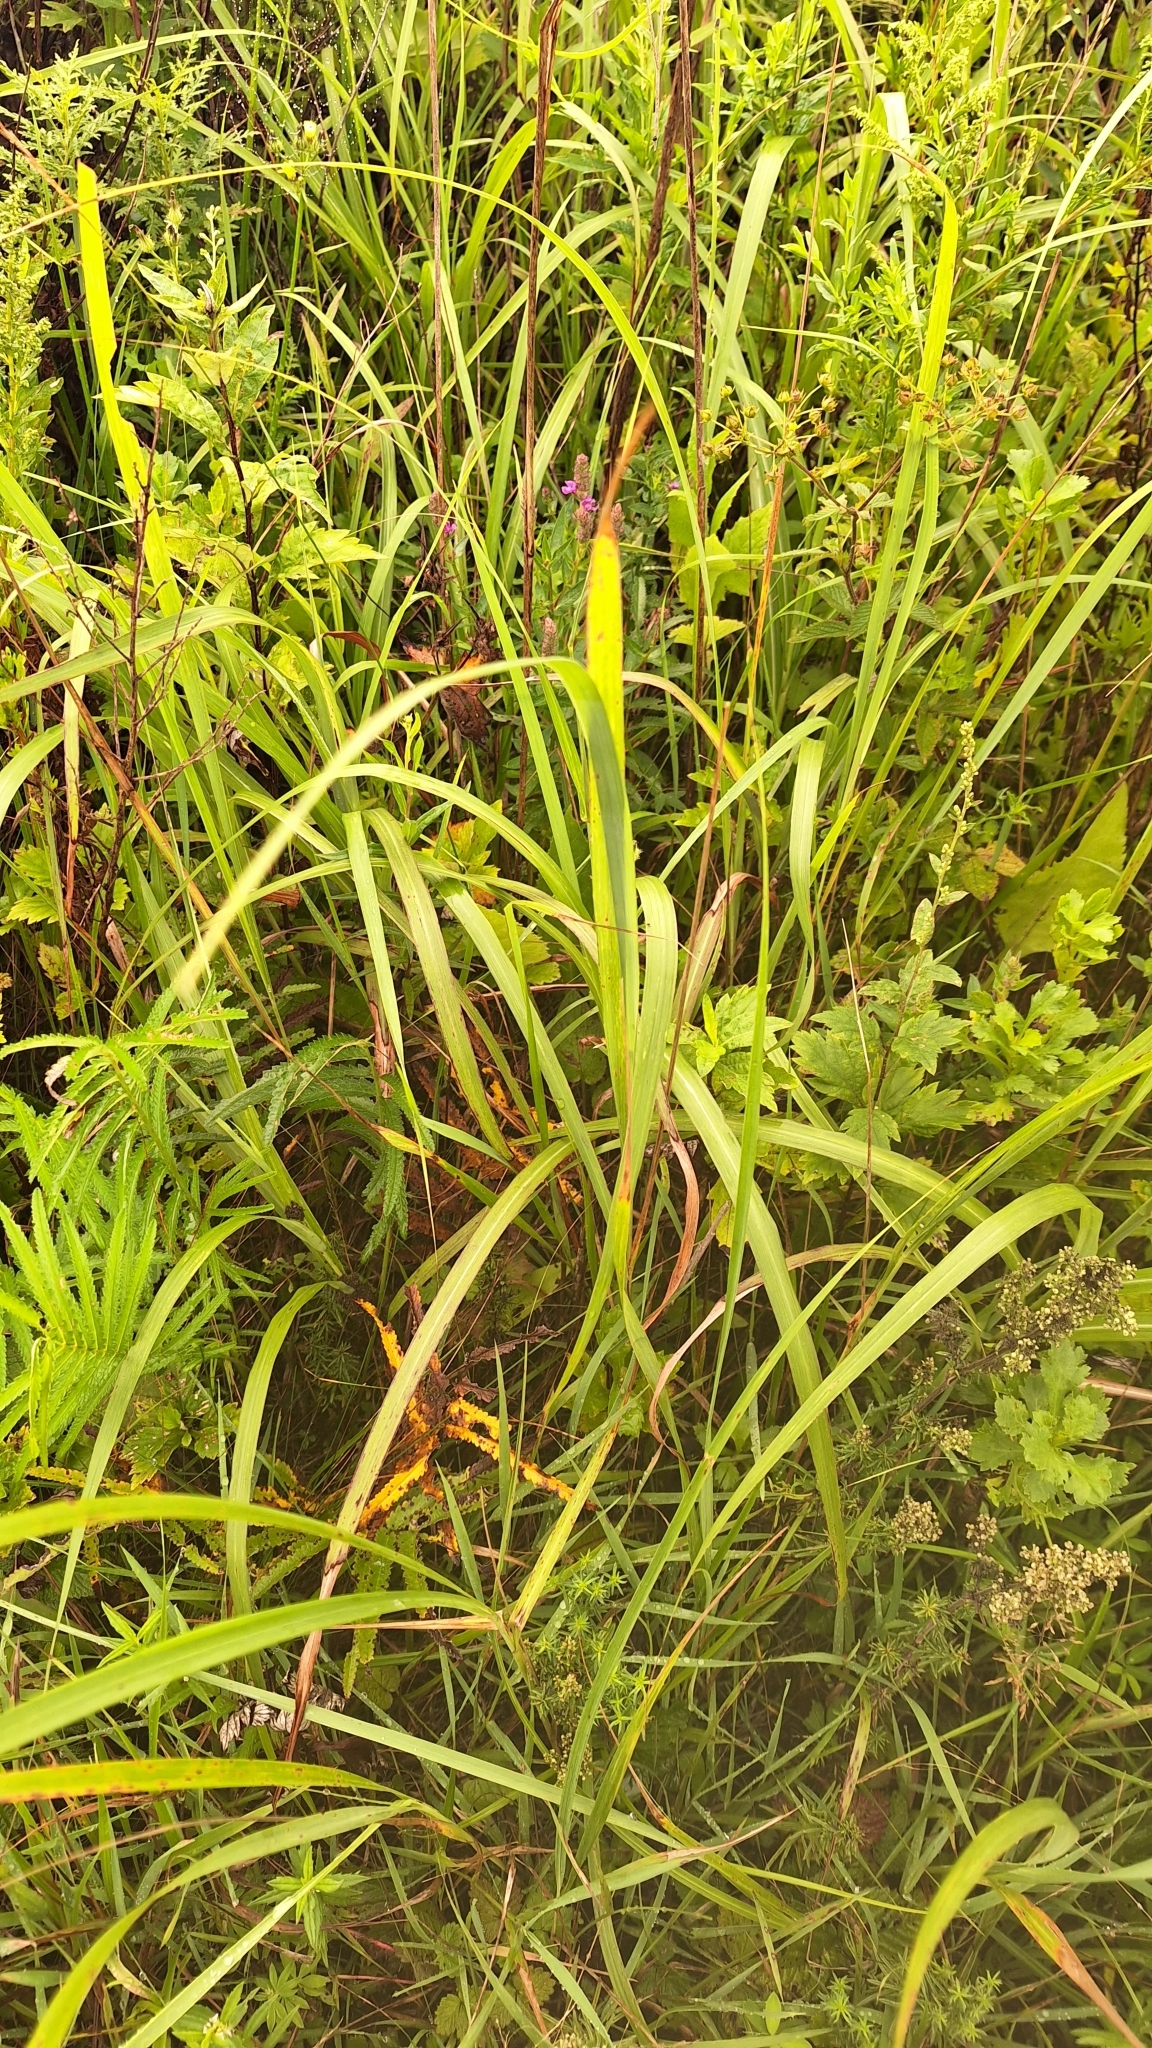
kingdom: Plantae
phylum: Tracheophyta
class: Liliopsida
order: Poales
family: Poaceae
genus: Calamagrostis
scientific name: Calamagrostis extremiorientalis
